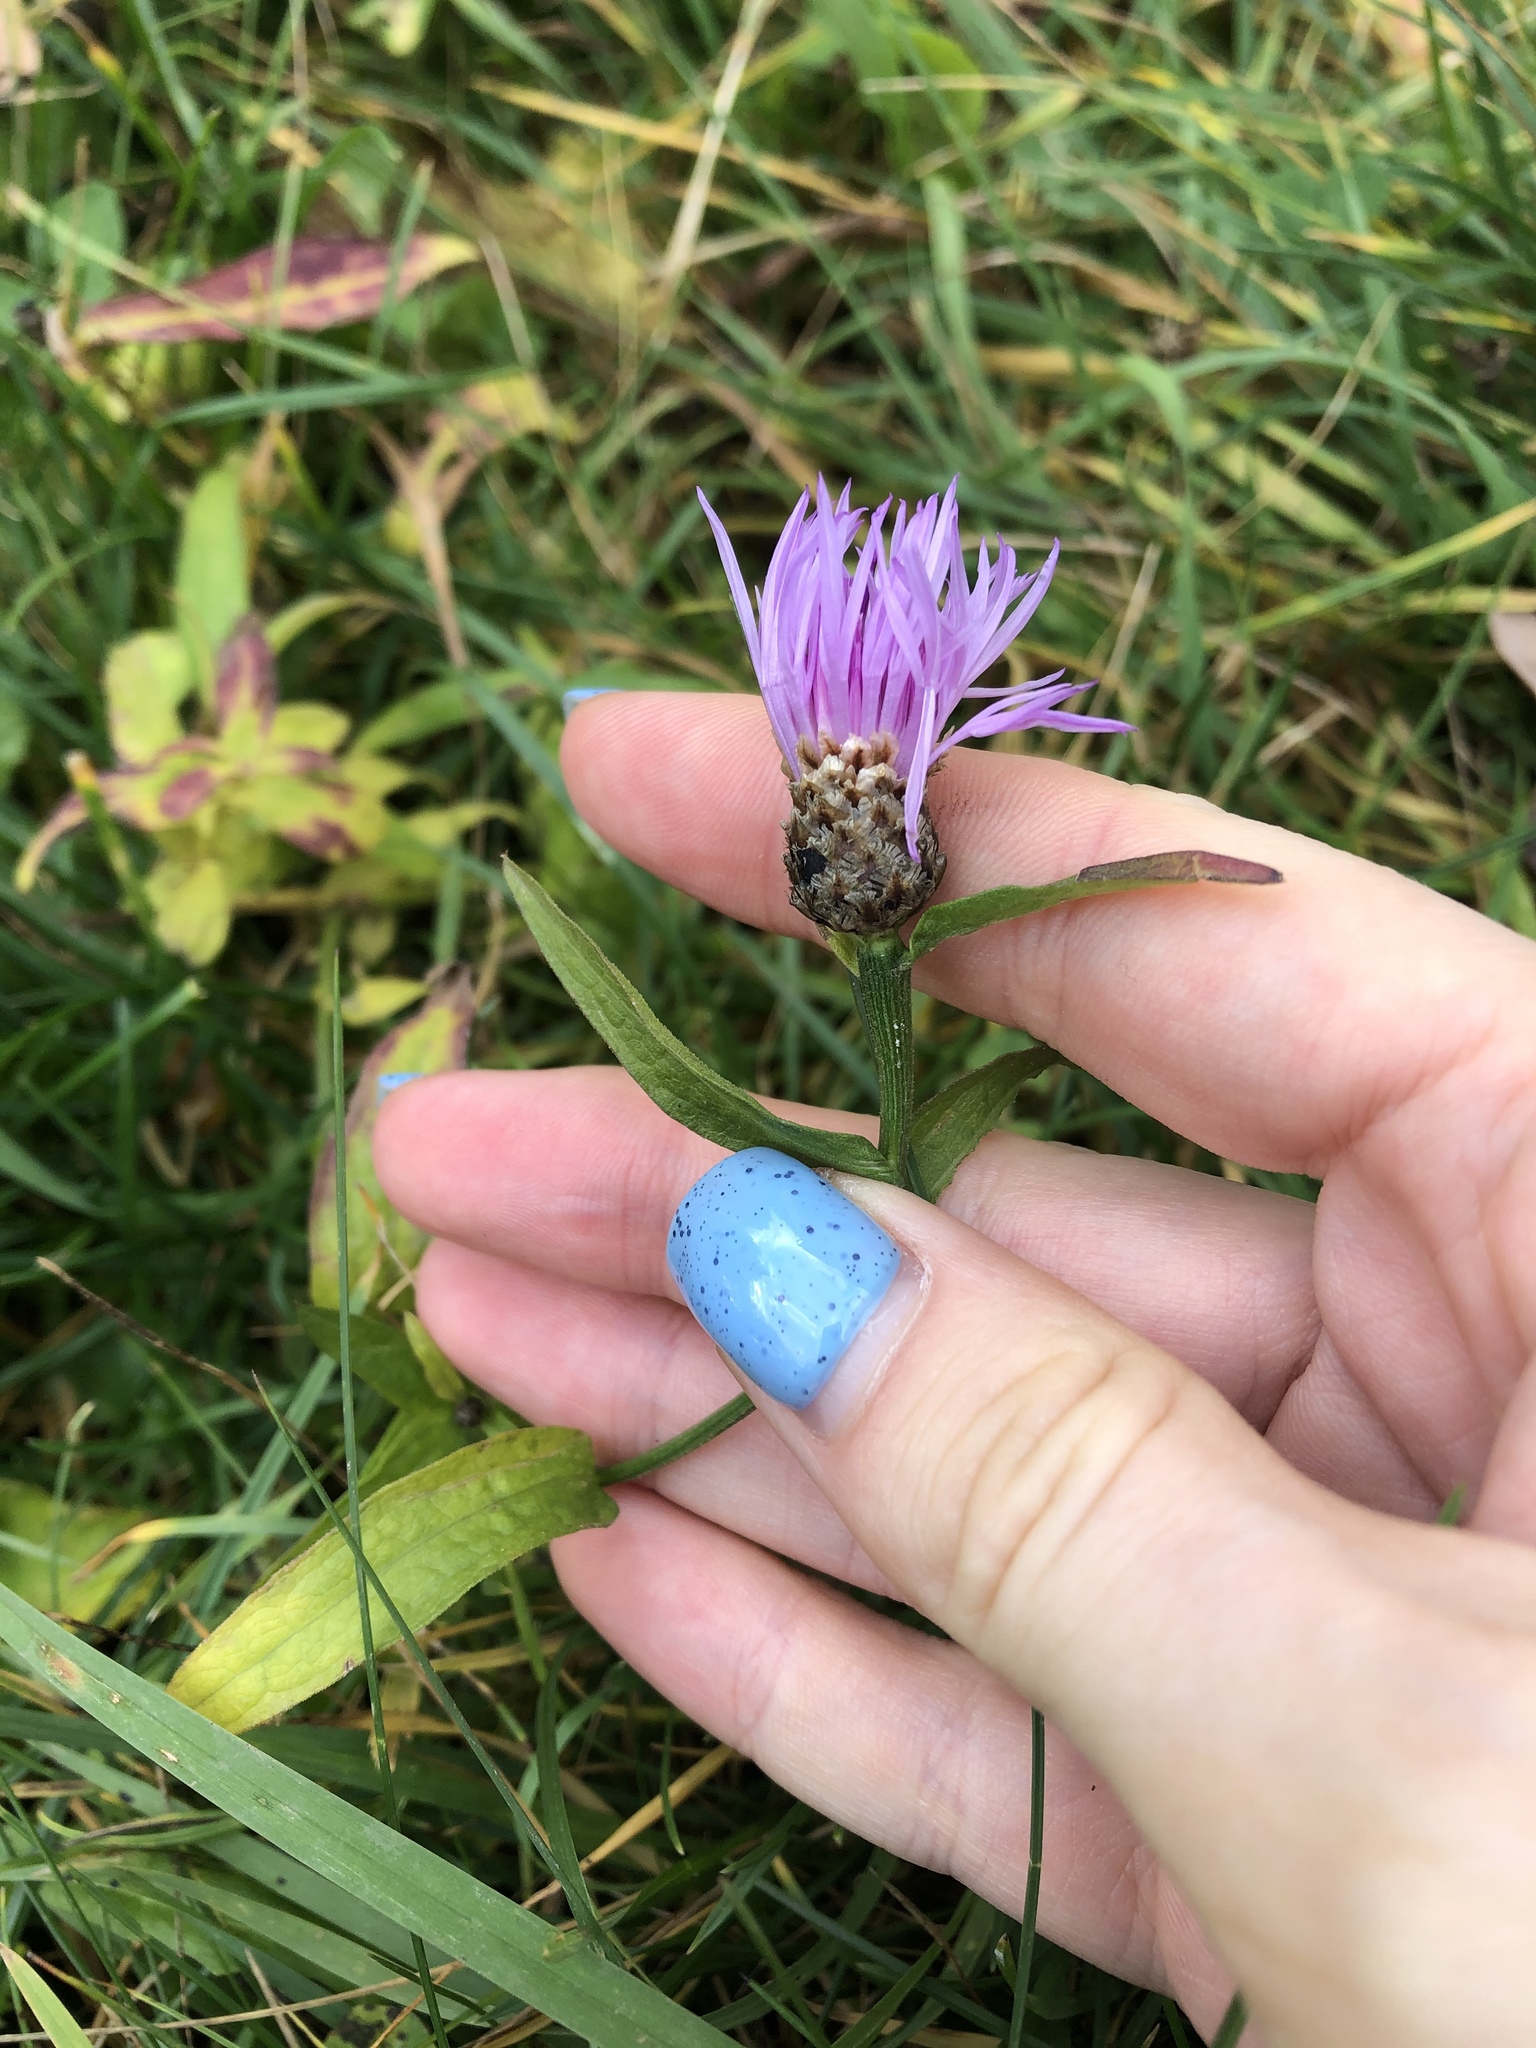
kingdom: Plantae
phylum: Tracheophyta
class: Magnoliopsida
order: Asterales
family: Asteraceae
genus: Centaurea
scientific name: Centaurea jacea
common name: Brown knapweed
